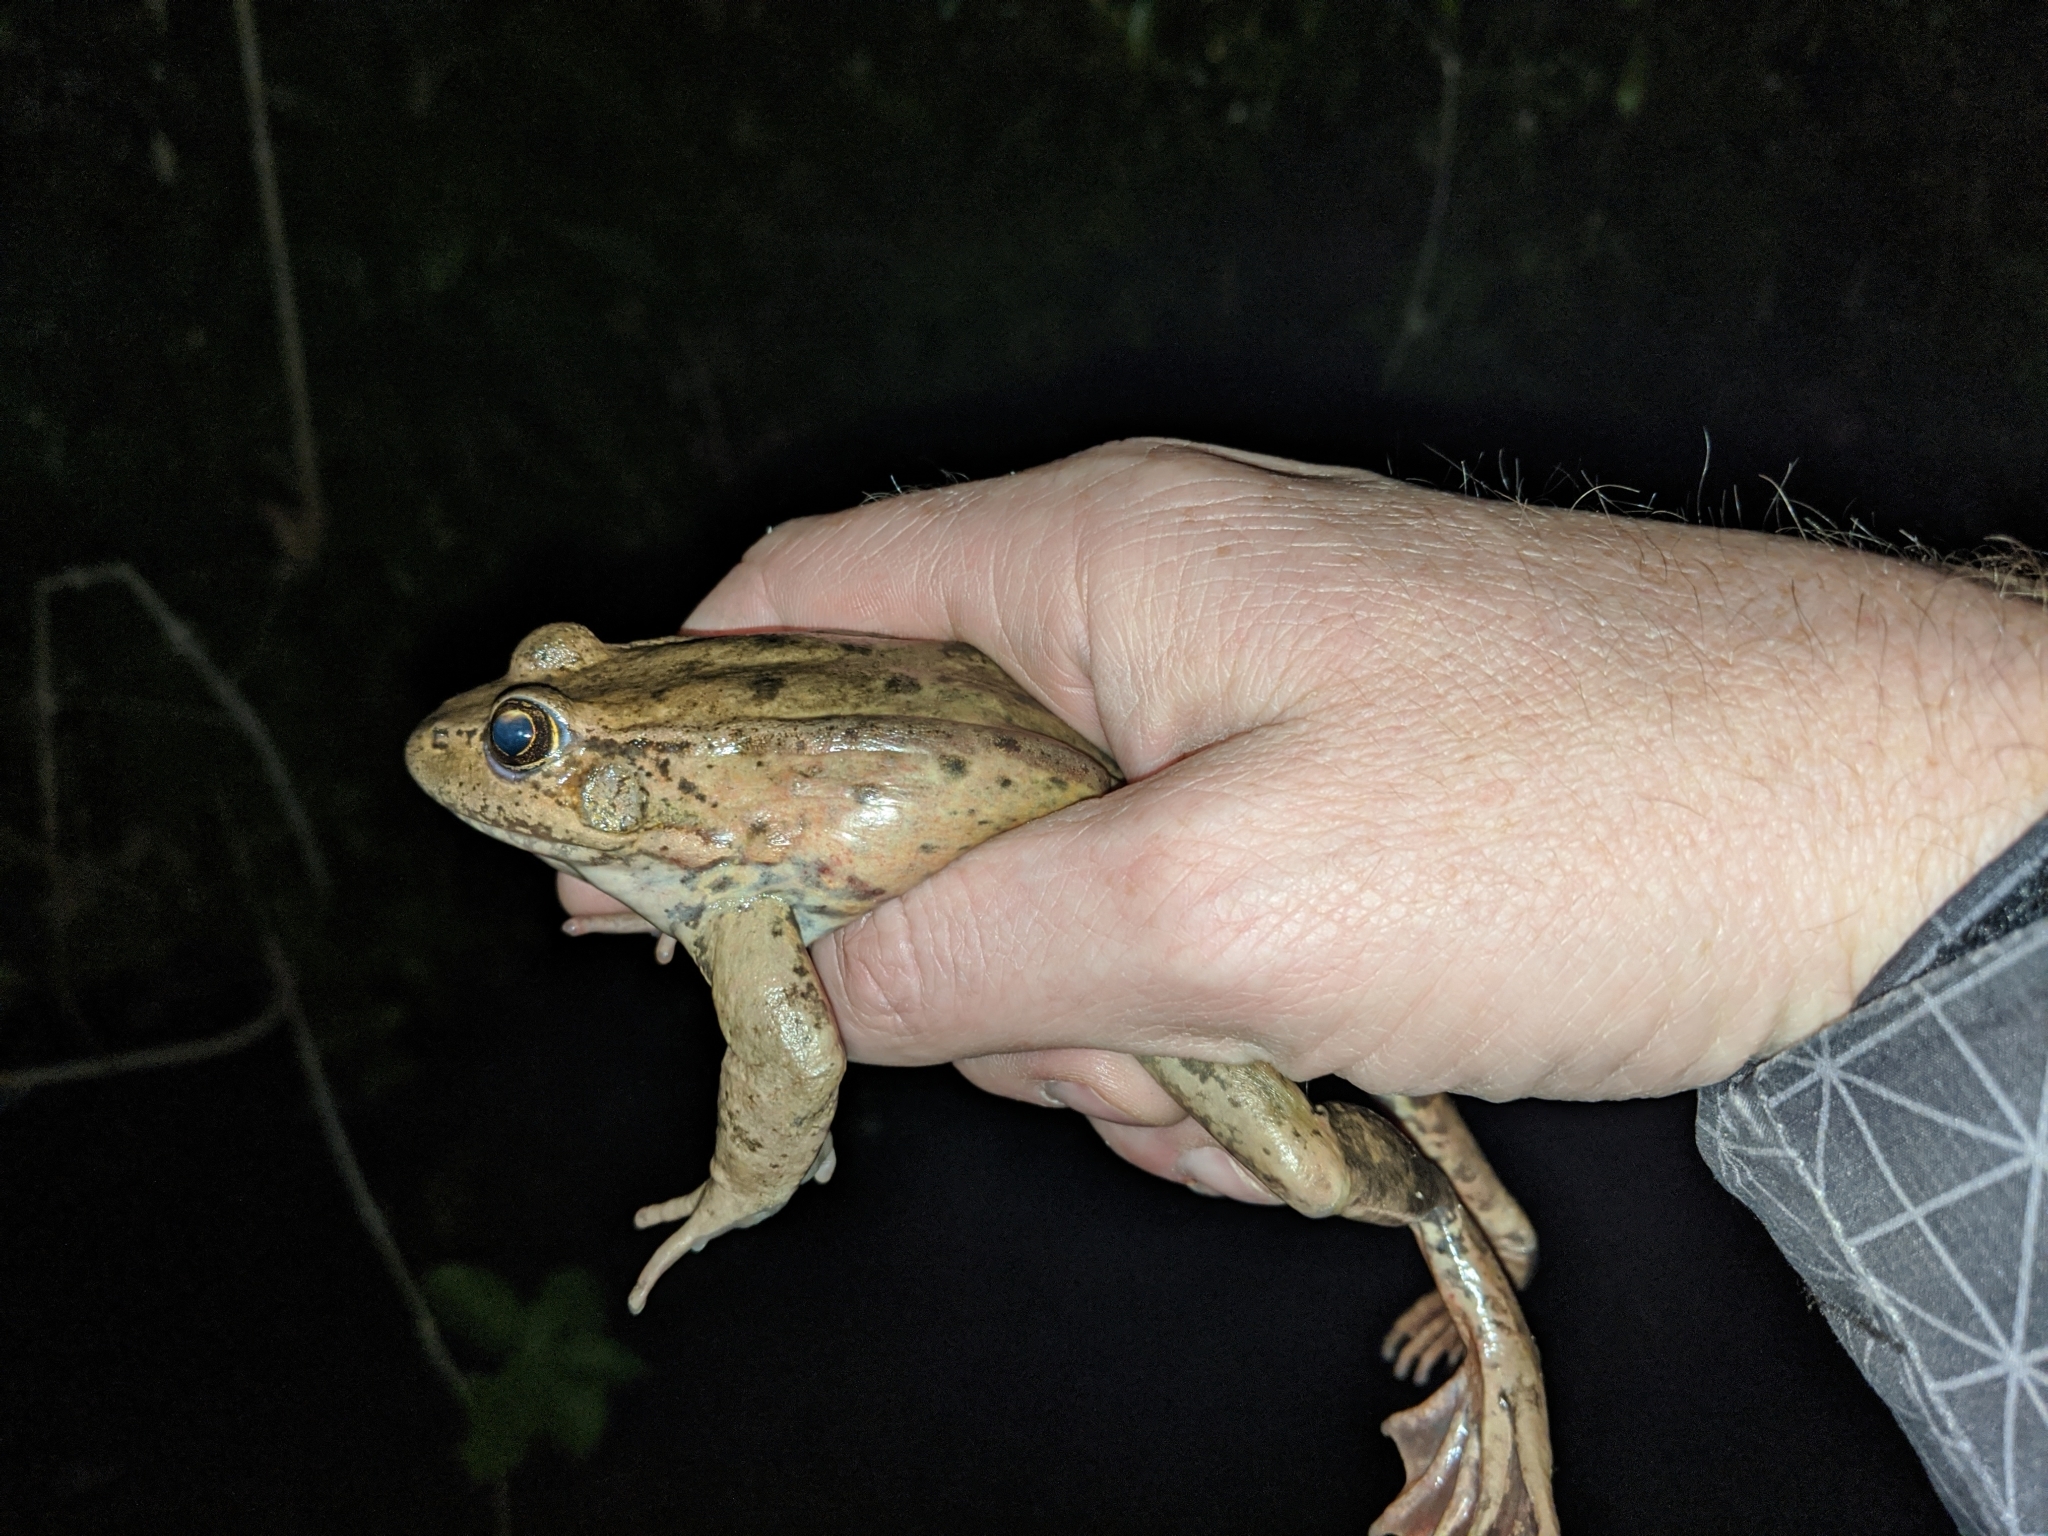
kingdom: Animalia
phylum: Chordata
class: Amphibia
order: Anura
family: Ranidae
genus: Rana
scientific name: Rana draytonii
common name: California red-legged frog
